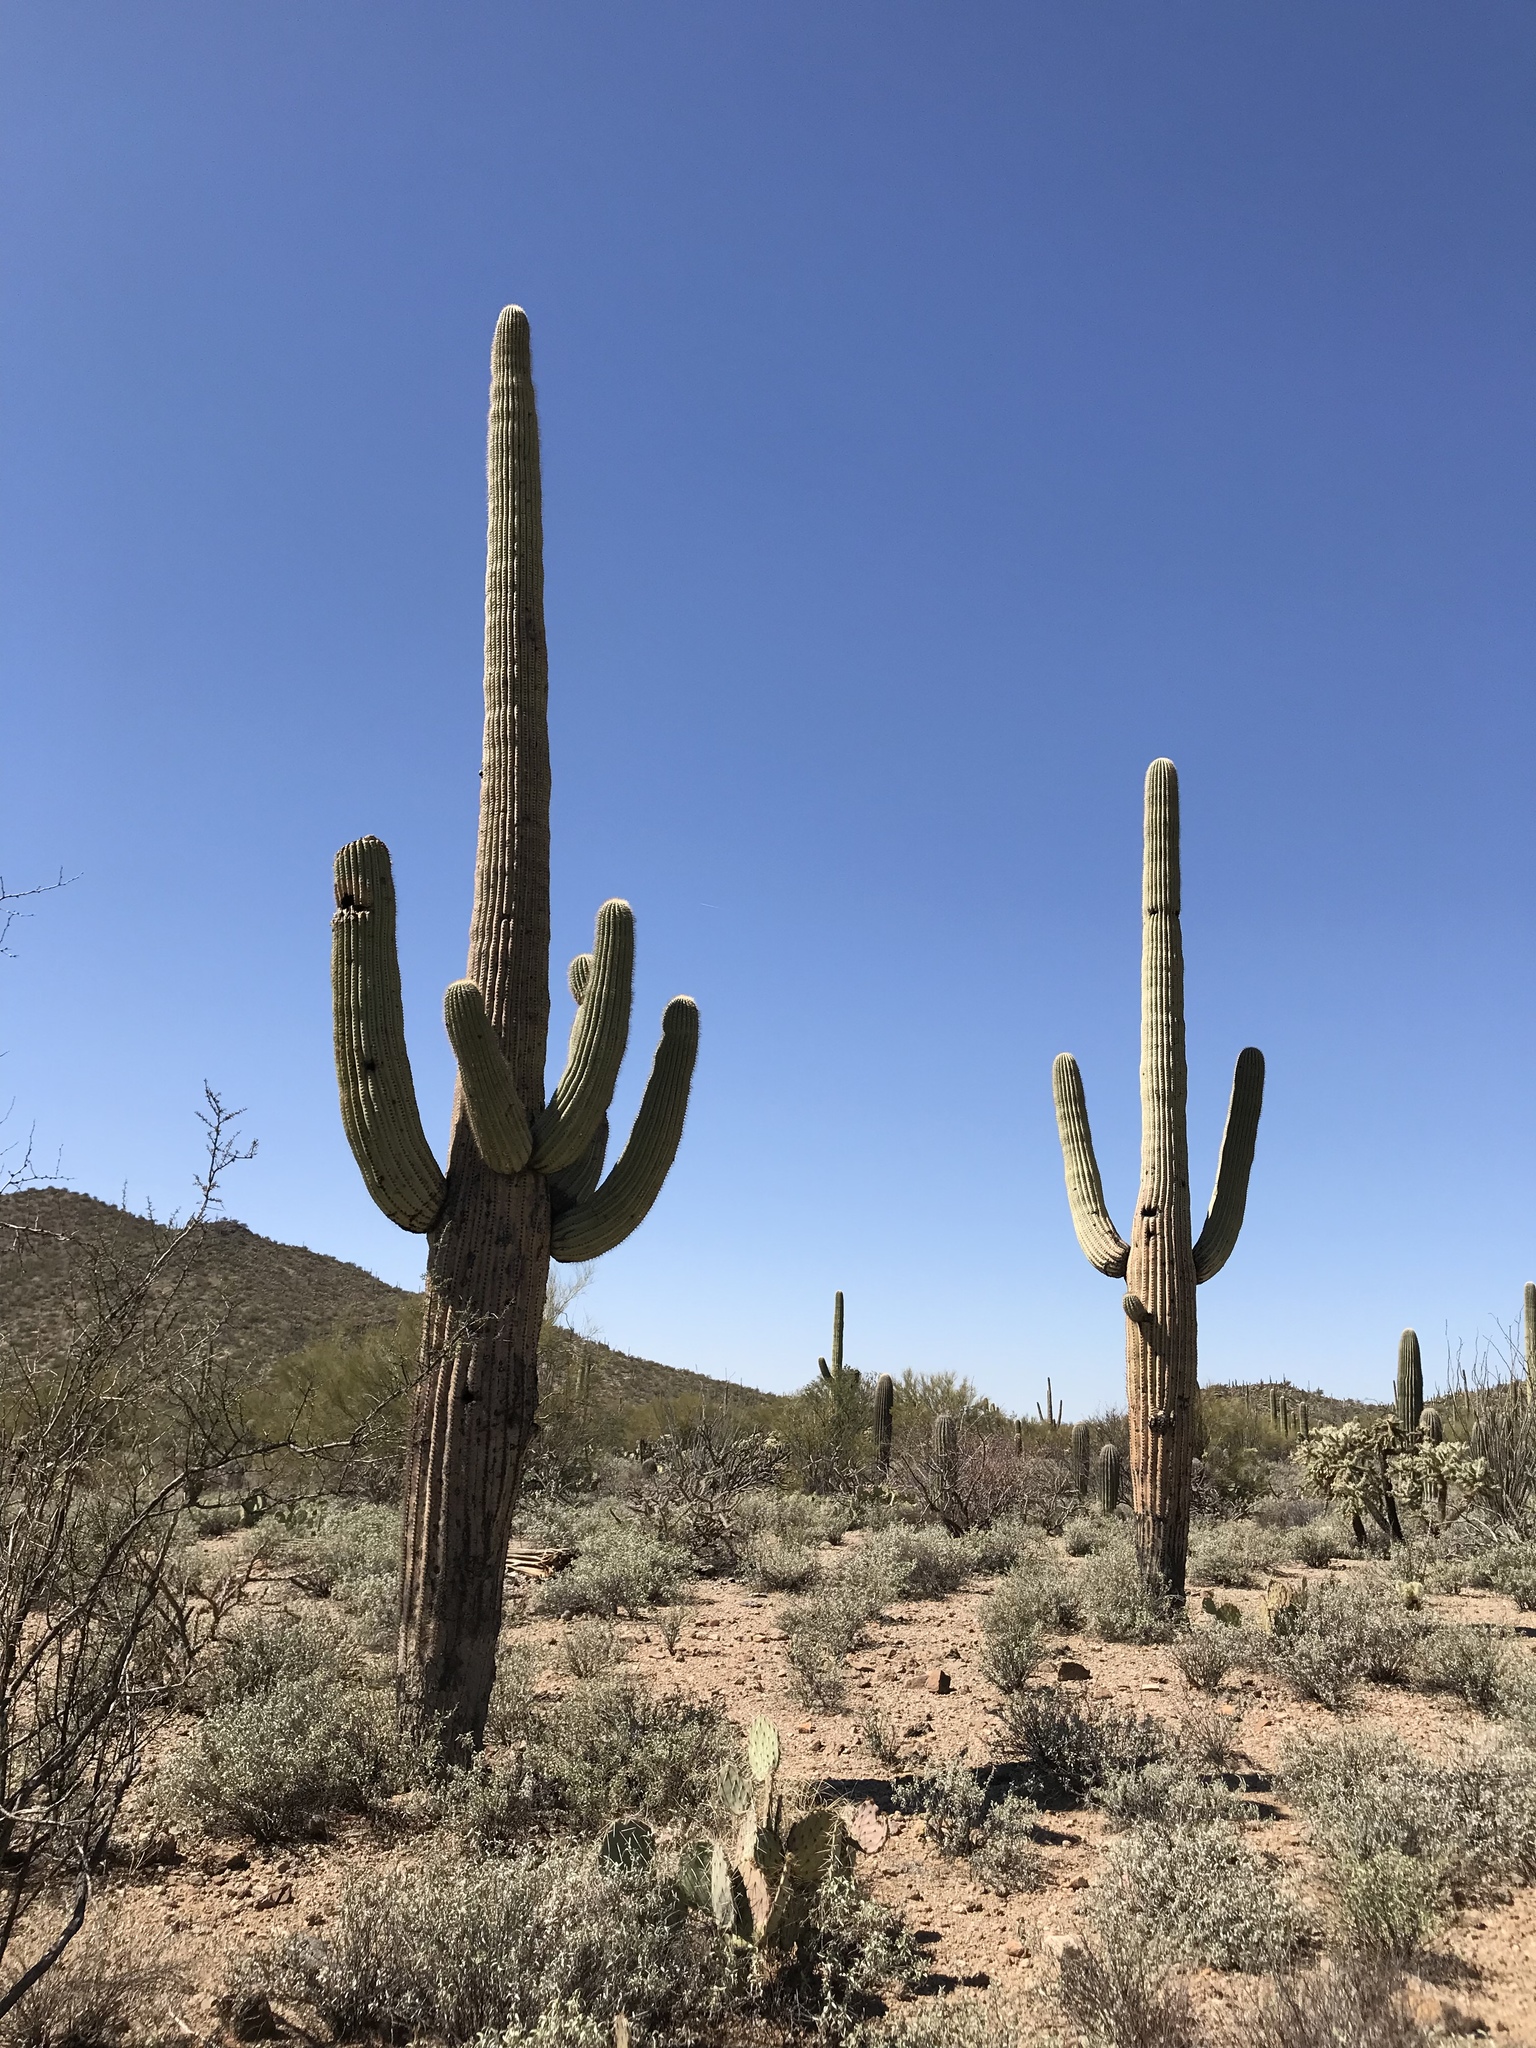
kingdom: Plantae
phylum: Tracheophyta
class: Magnoliopsida
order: Caryophyllales
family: Cactaceae
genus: Carnegiea
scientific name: Carnegiea gigantea
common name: Saguaro
